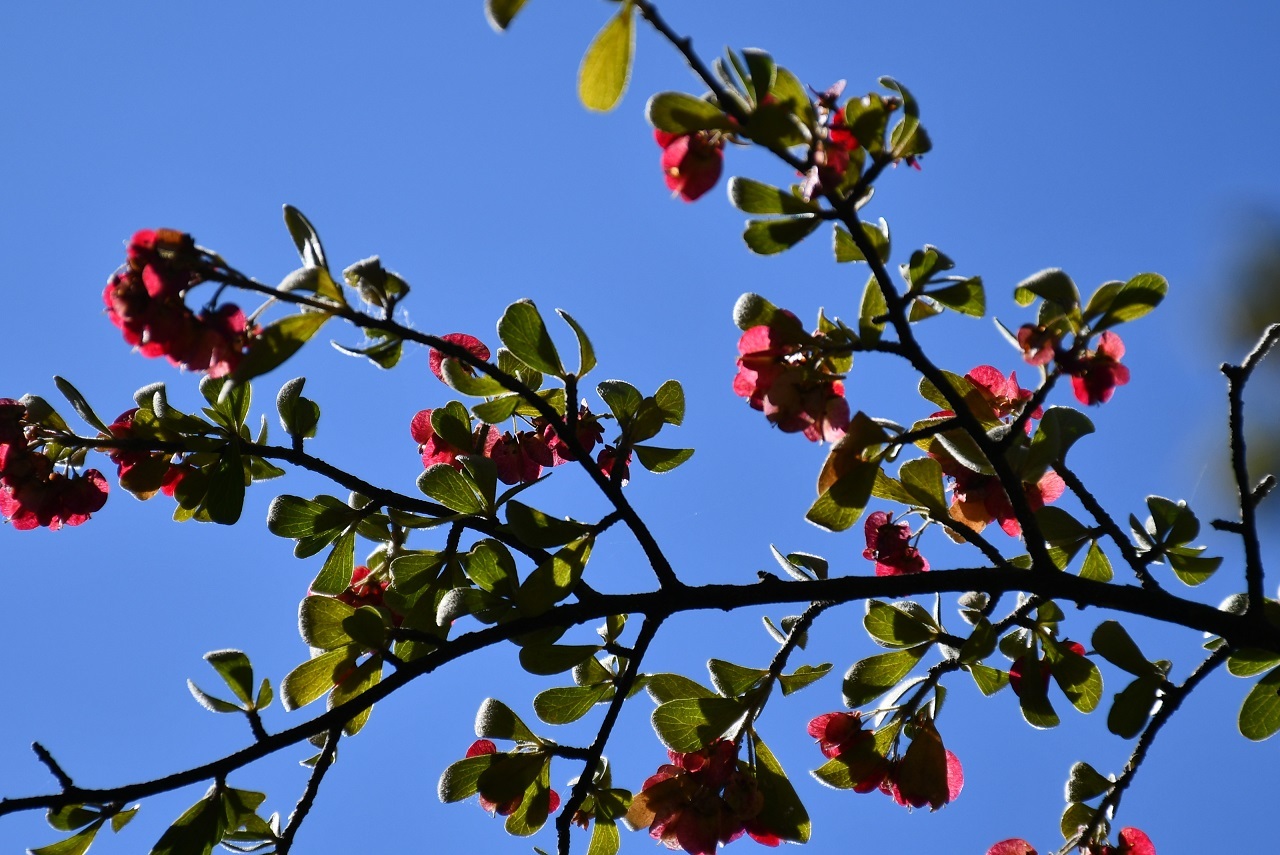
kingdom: Plantae
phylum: Tracheophyta
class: Magnoliopsida
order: Celastrales
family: Celastraceae
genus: Wimmeria
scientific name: Wimmeria microphylla
